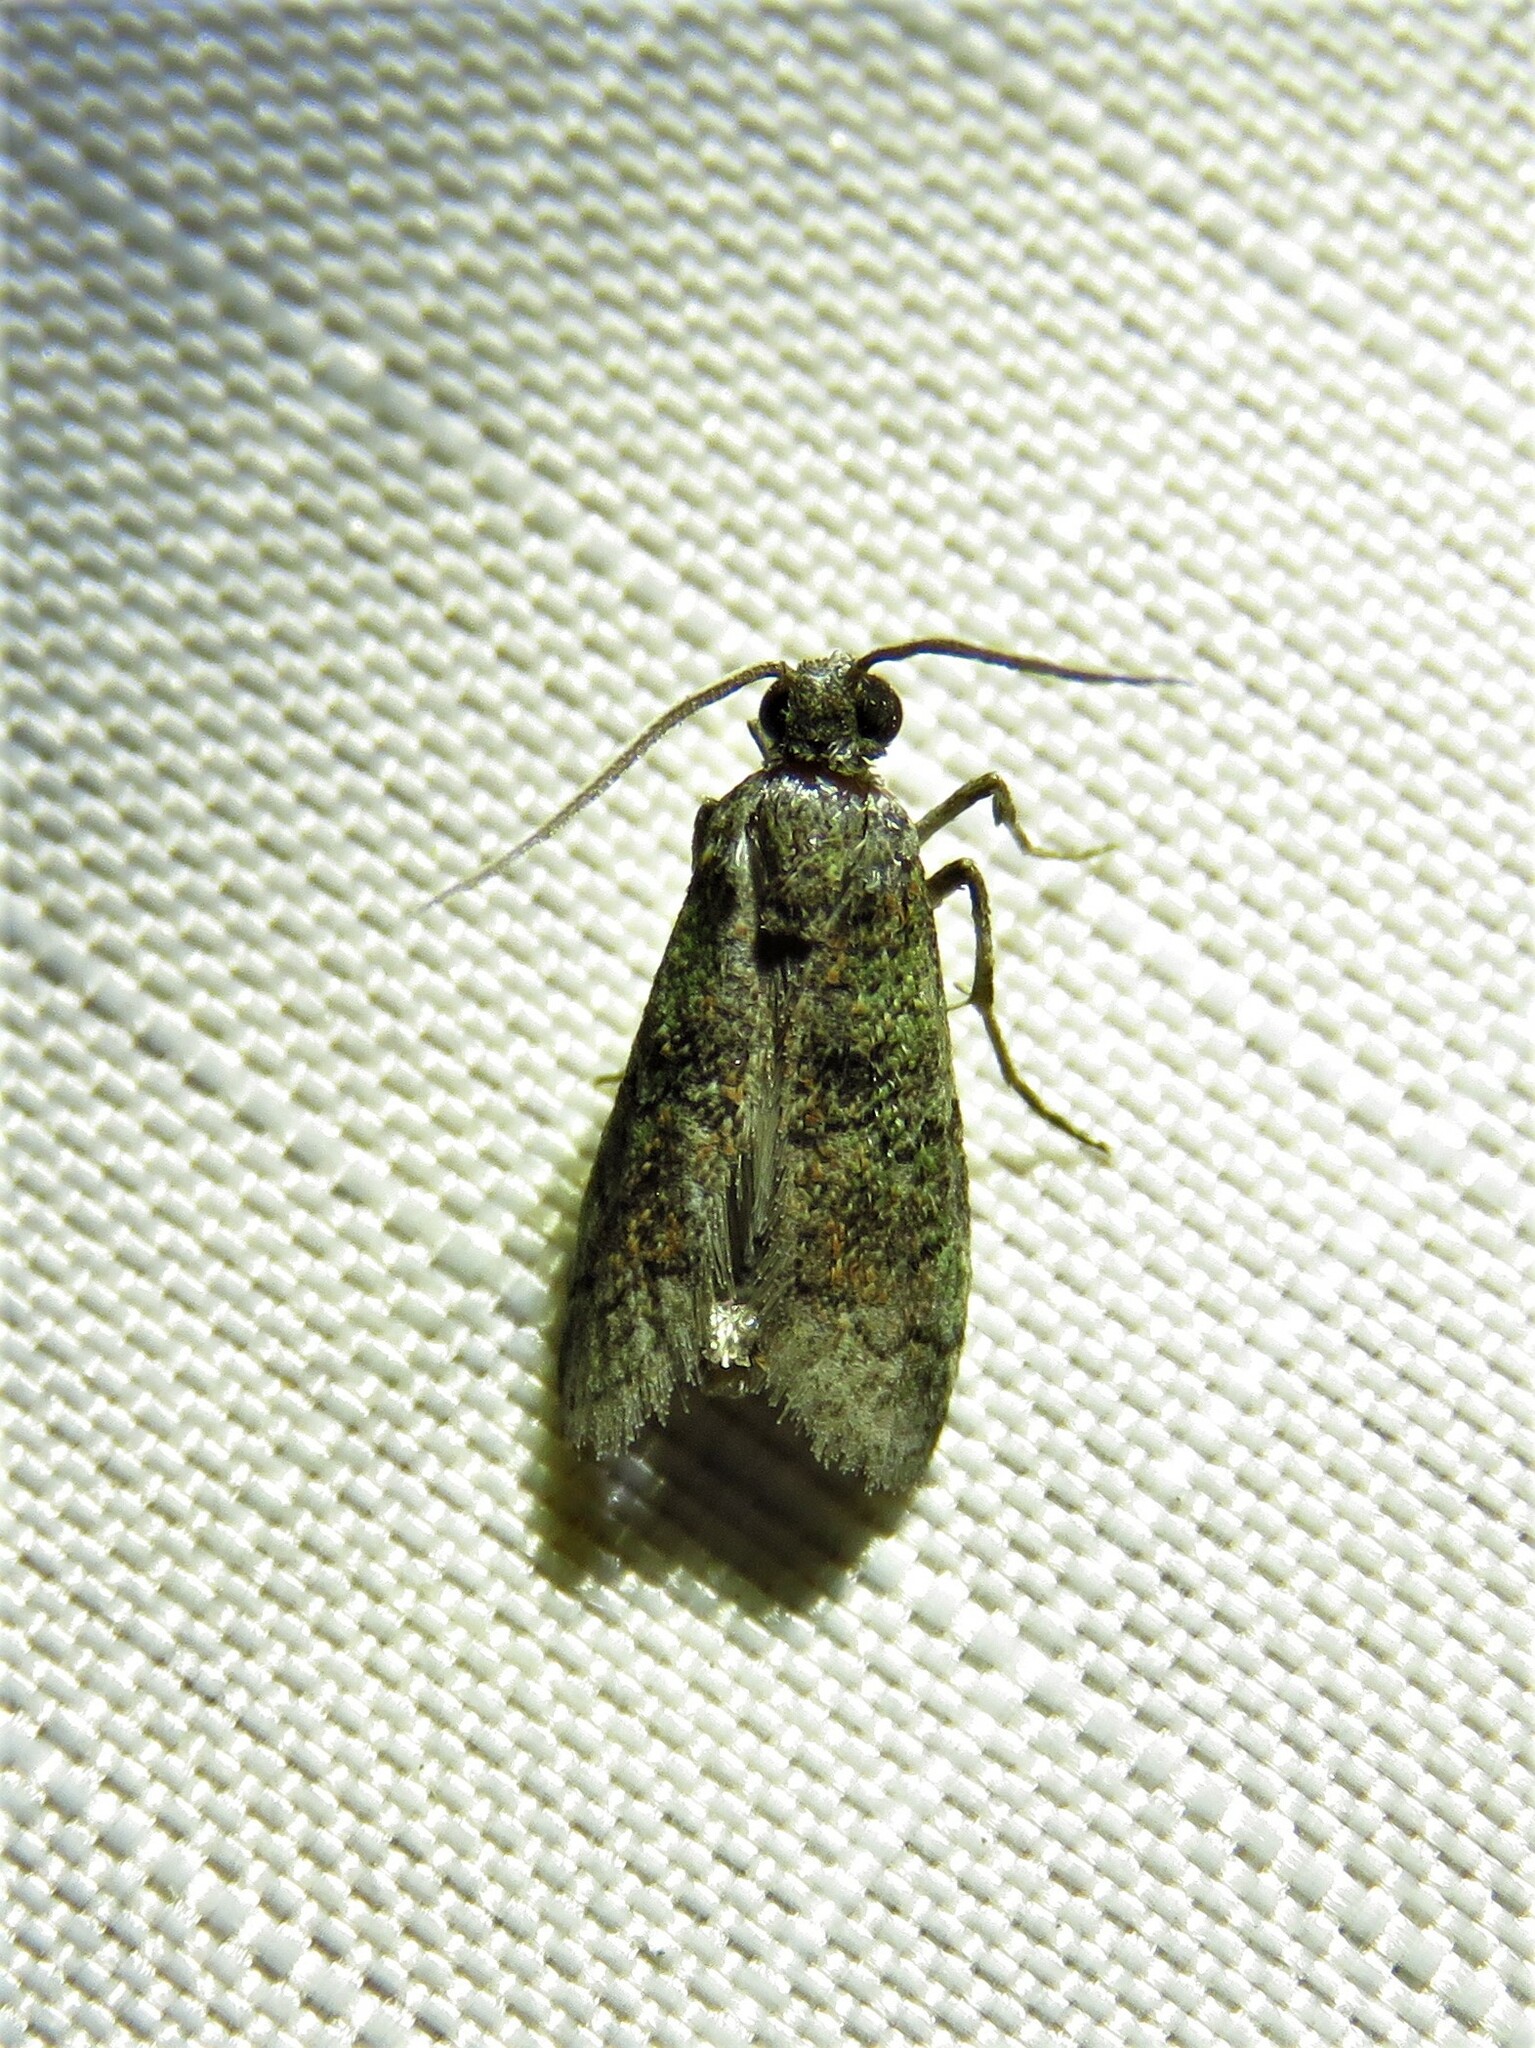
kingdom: Animalia
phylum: Arthropoda
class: Insecta
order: Lepidoptera
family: Pyralidae
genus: Cacotherapia
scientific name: Cacotherapia flexilinealis
